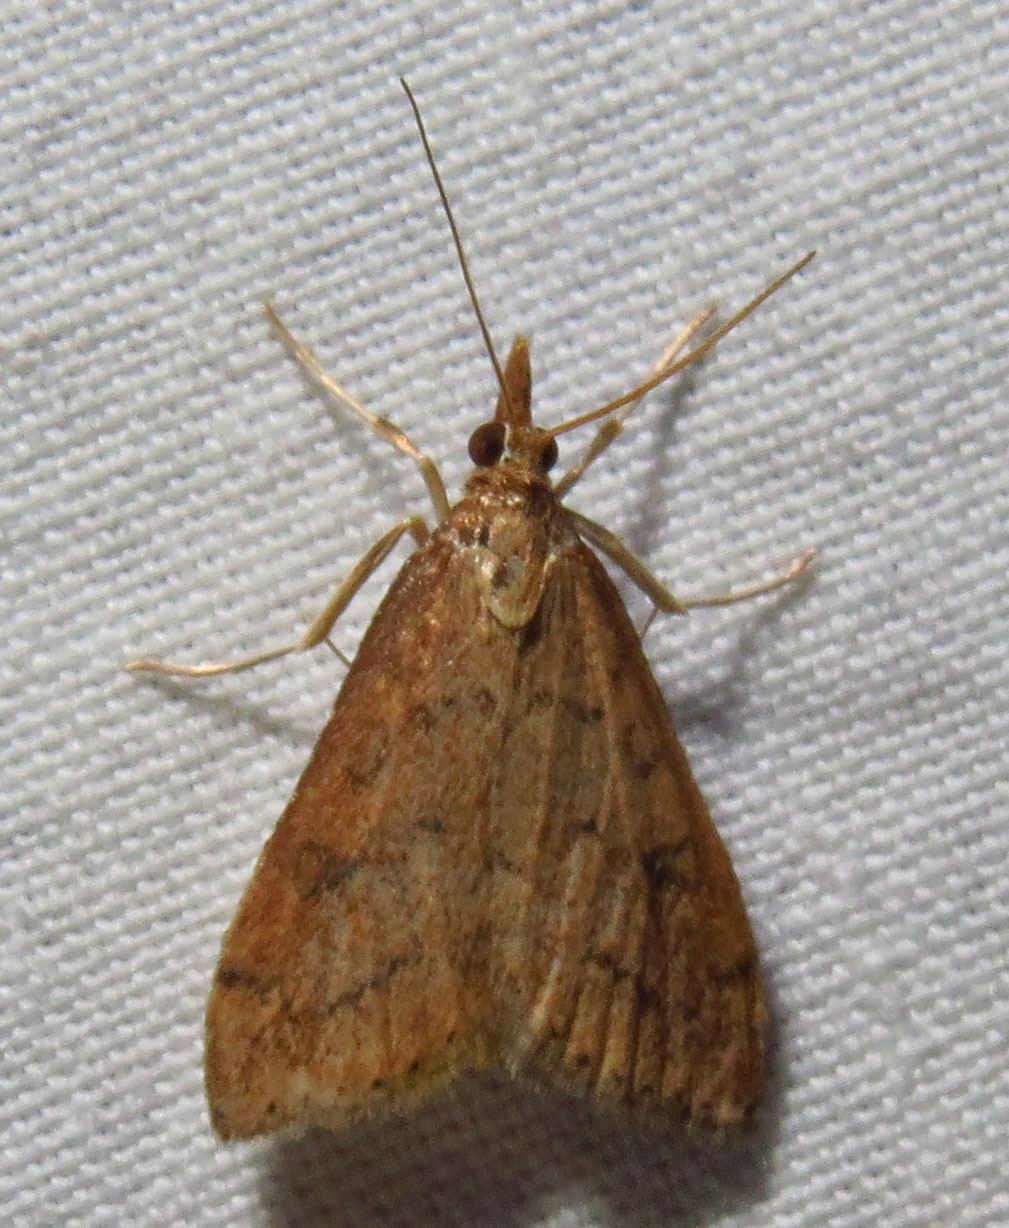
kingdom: Animalia
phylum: Arthropoda
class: Insecta
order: Lepidoptera
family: Crambidae
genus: Udea
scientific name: Udea rubigalis
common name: Celery leaftier moth
